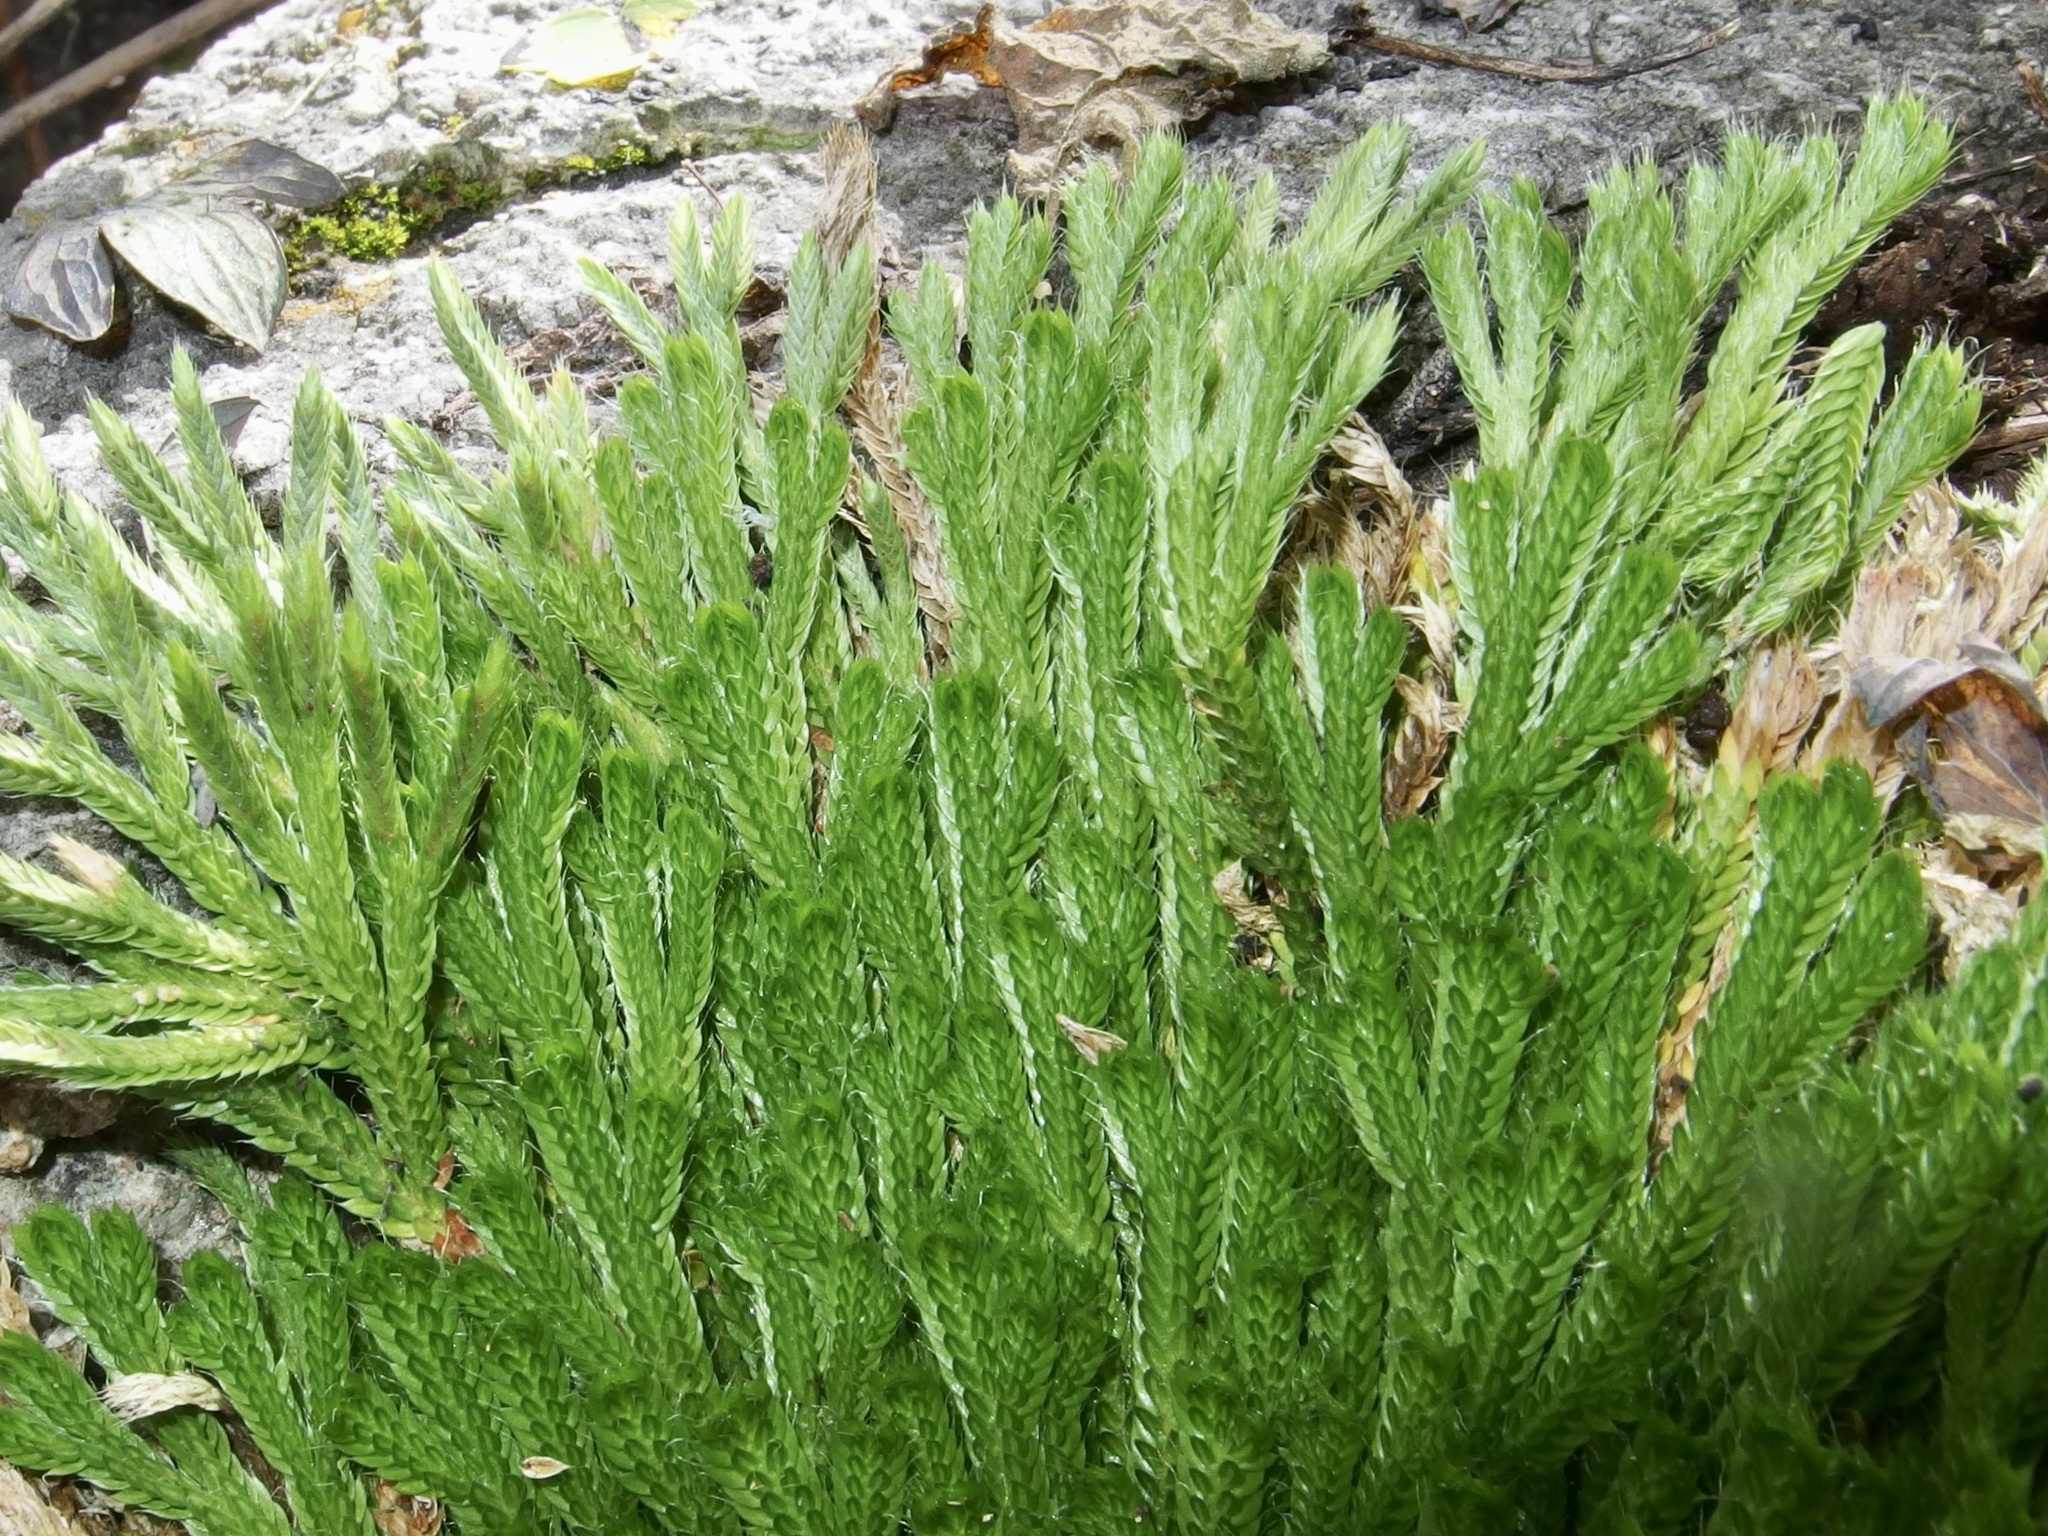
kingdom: Plantae
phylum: Tracheophyta
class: Lycopodiopsida
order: Selaginellales
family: Selaginellaceae
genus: Selaginella
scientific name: Selaginella pilifera
